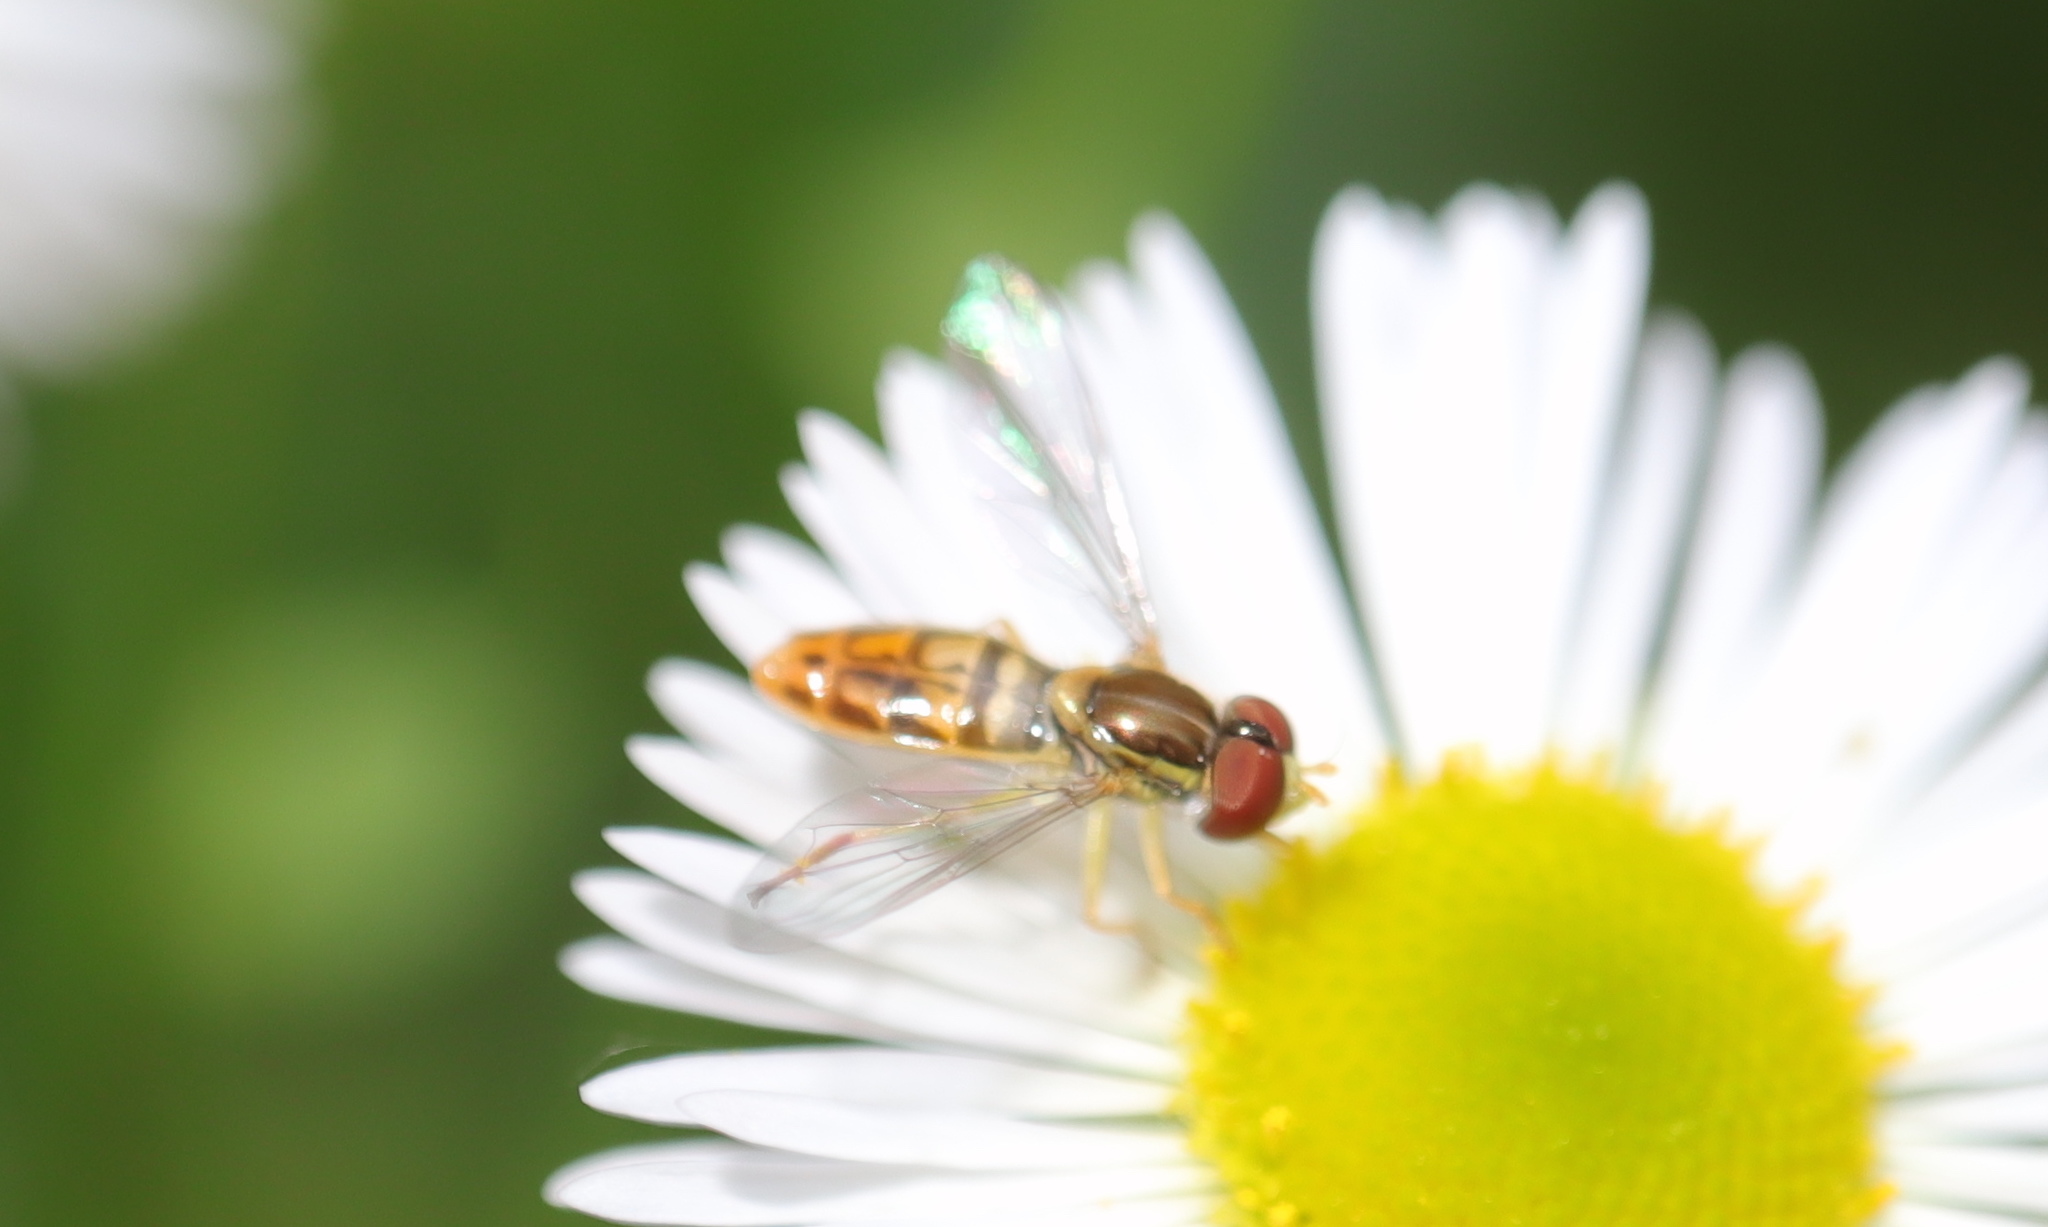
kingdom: Animalia
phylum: Arthropoda
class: Insecta
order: Diptera
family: Syrphidae
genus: Toxomerus
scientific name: Toxomerus marginatus
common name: Syrphid fly
